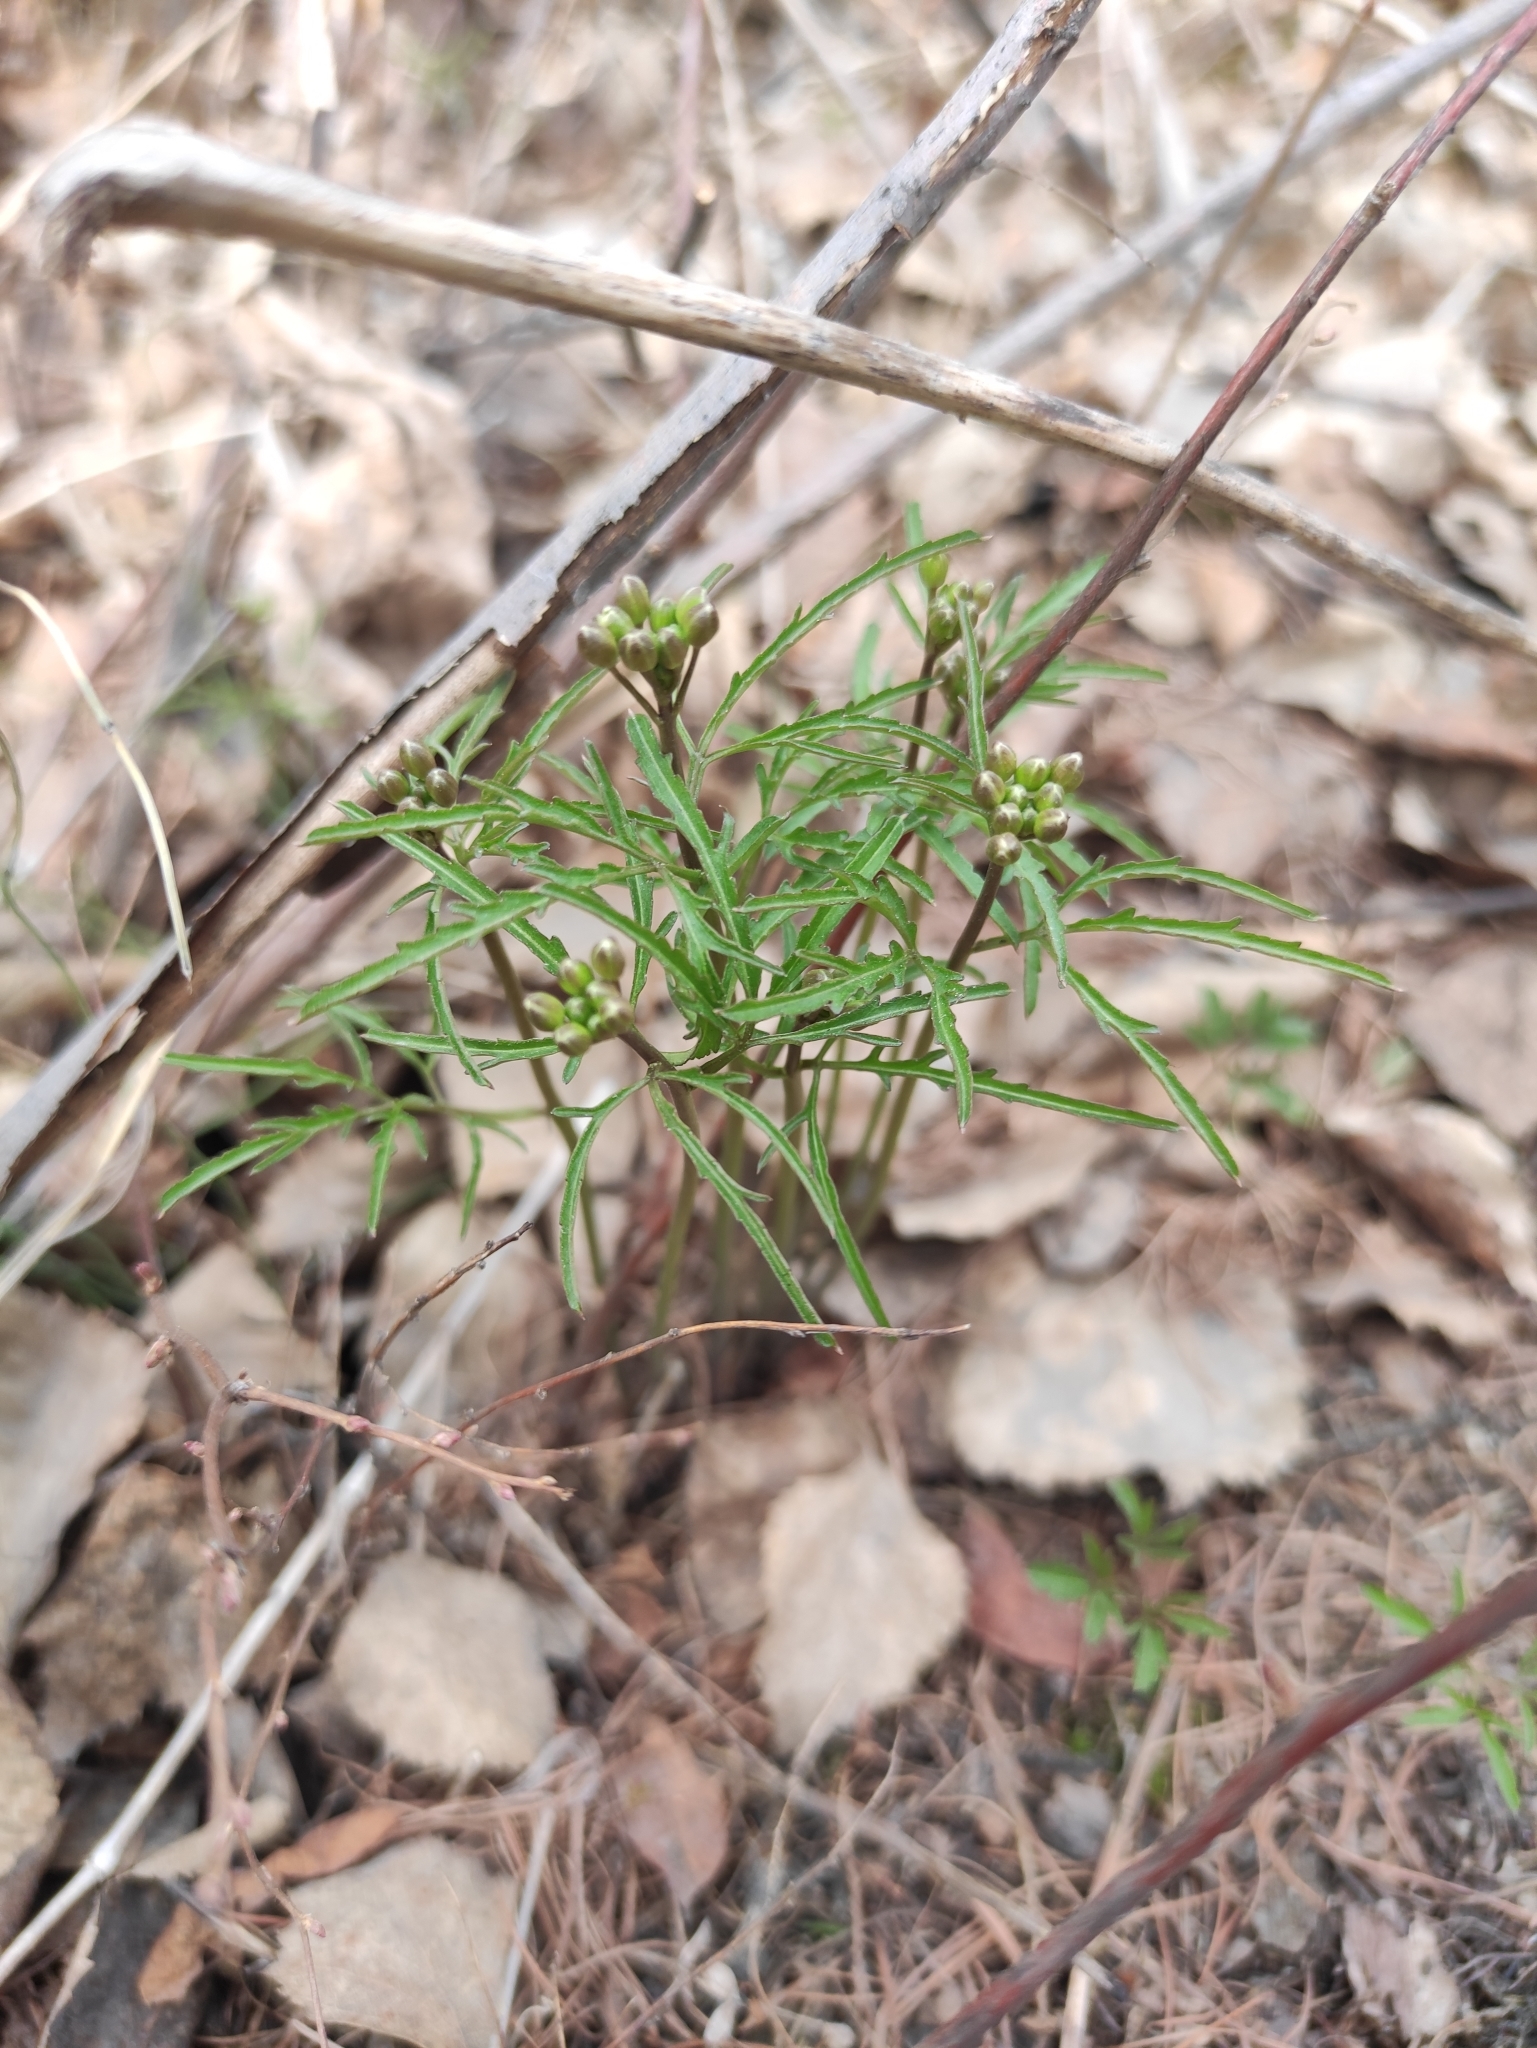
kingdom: Plantae
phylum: Tracheophyta
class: Magnoliopsida
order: Brassicales
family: Brassicaceae
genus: Cardamine
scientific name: Cardamine trifida
